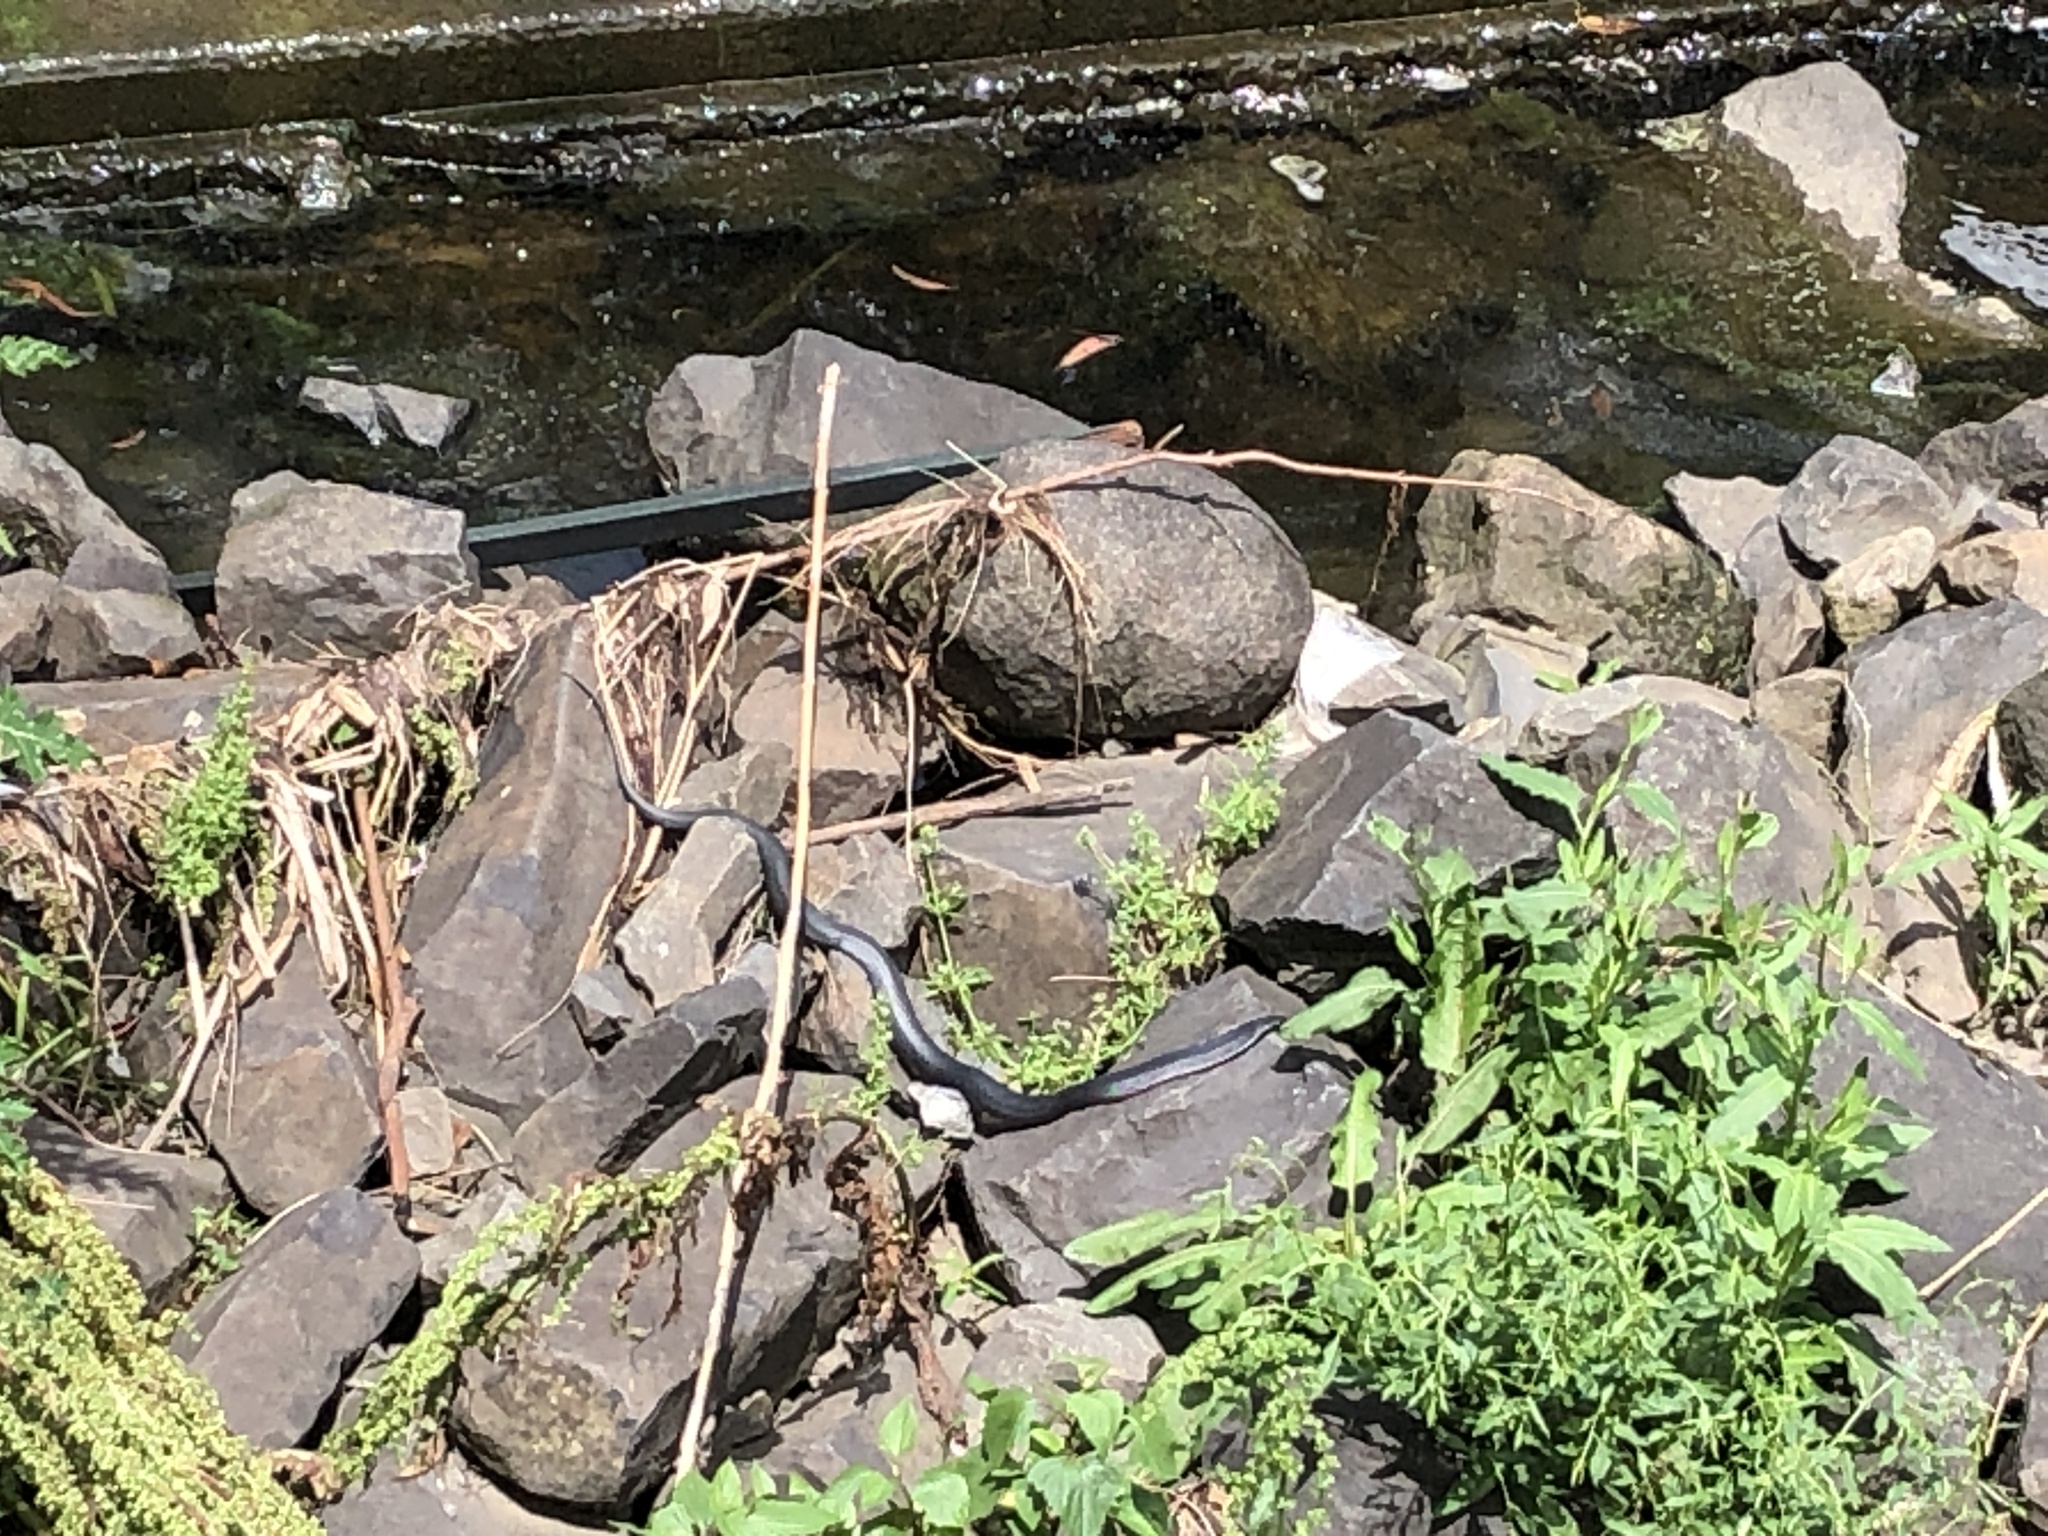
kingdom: Animalia
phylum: Chordata
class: Squamata
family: Elapidae
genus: Pseudechis
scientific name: Pseudechis porphyriacus
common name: Australian black snake
